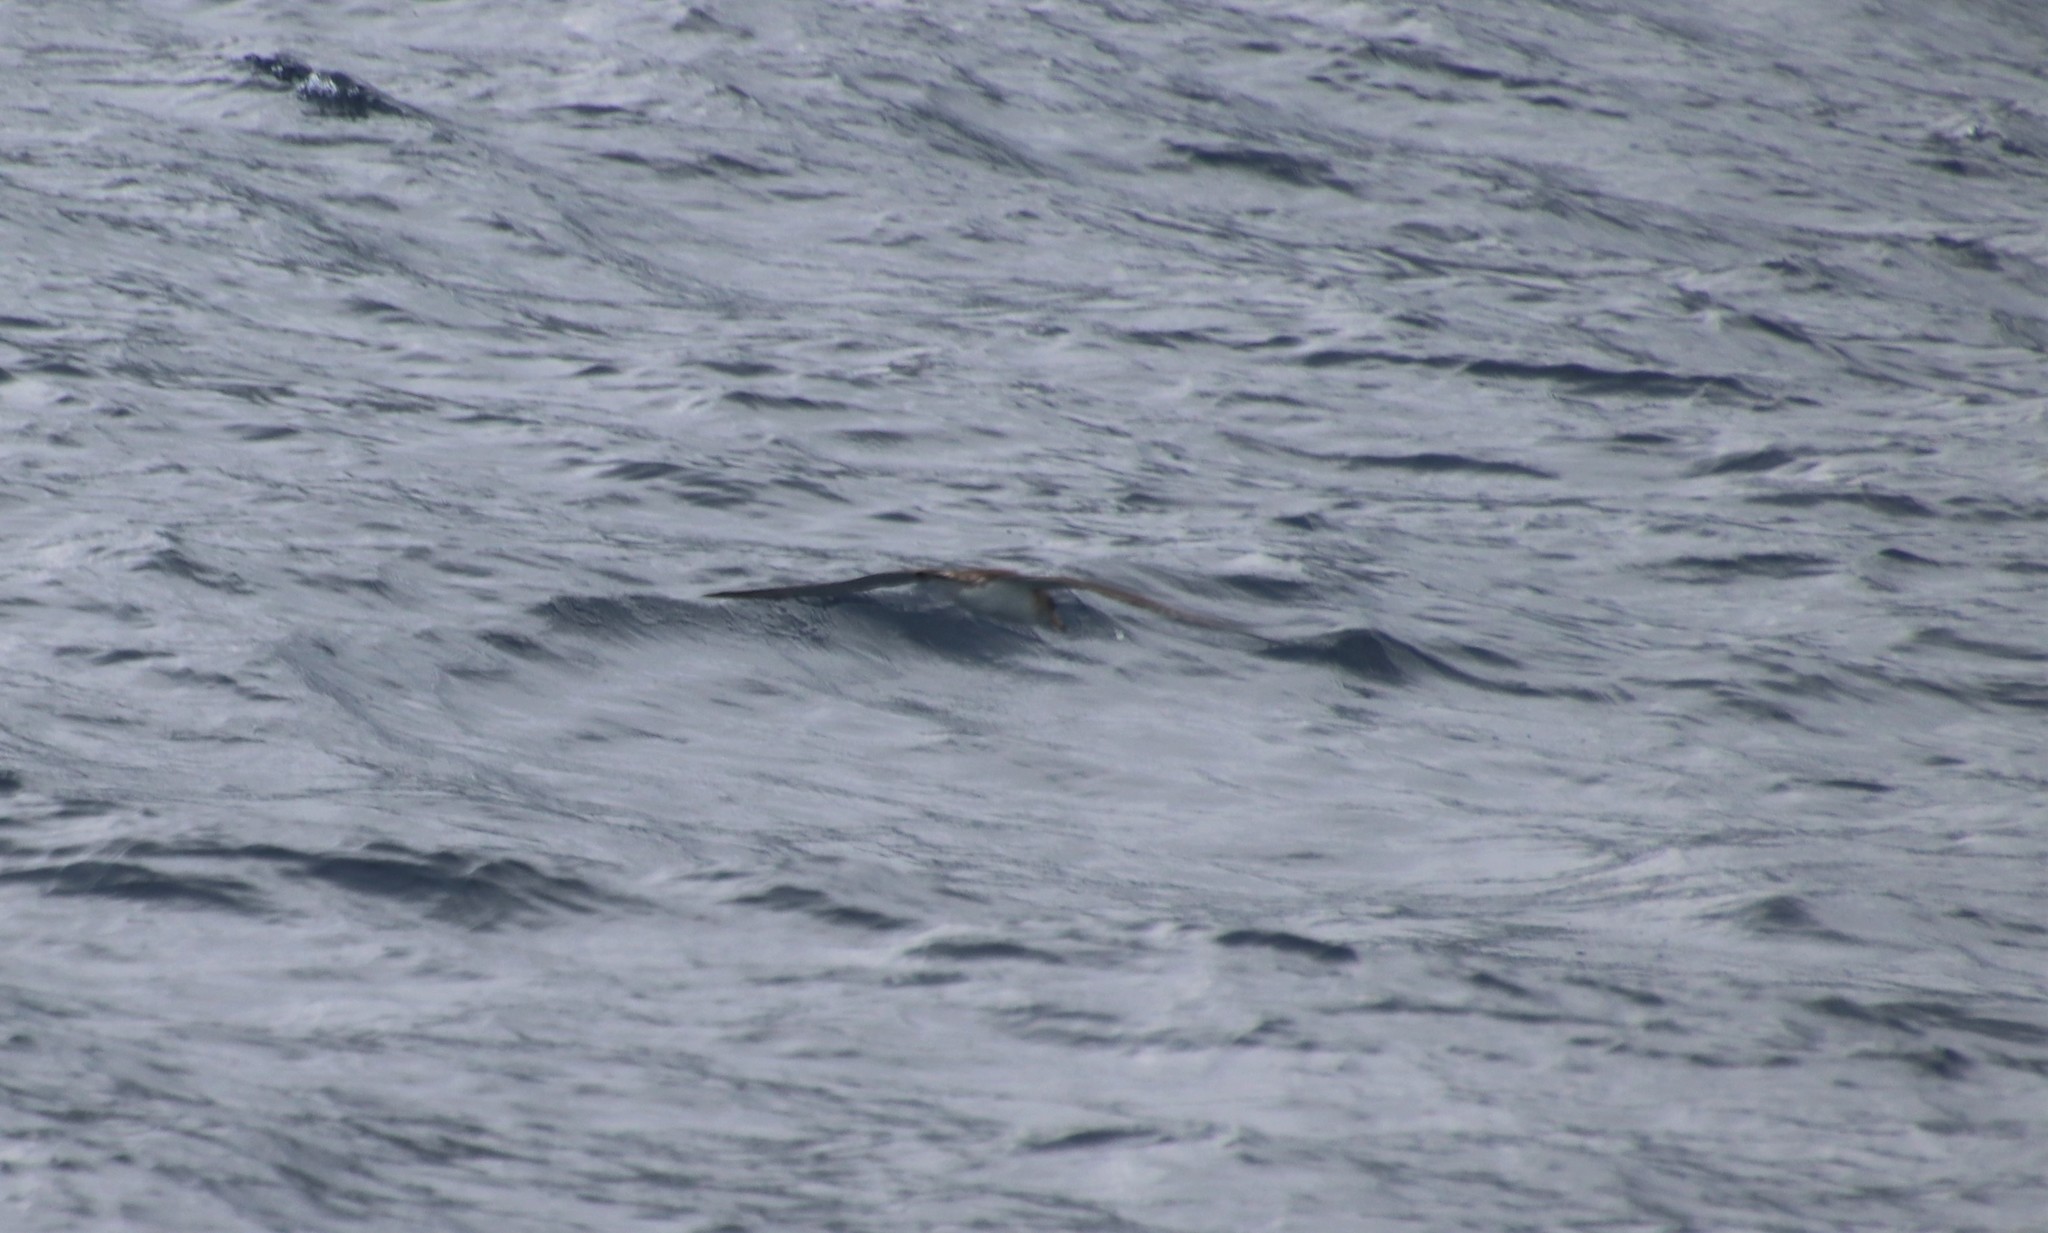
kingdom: Animalia
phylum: Chordata
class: Aves
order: Procellariiformes
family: Procellariidae
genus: Calonectris
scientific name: Calonectris diomedea
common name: Cory's shearwater
